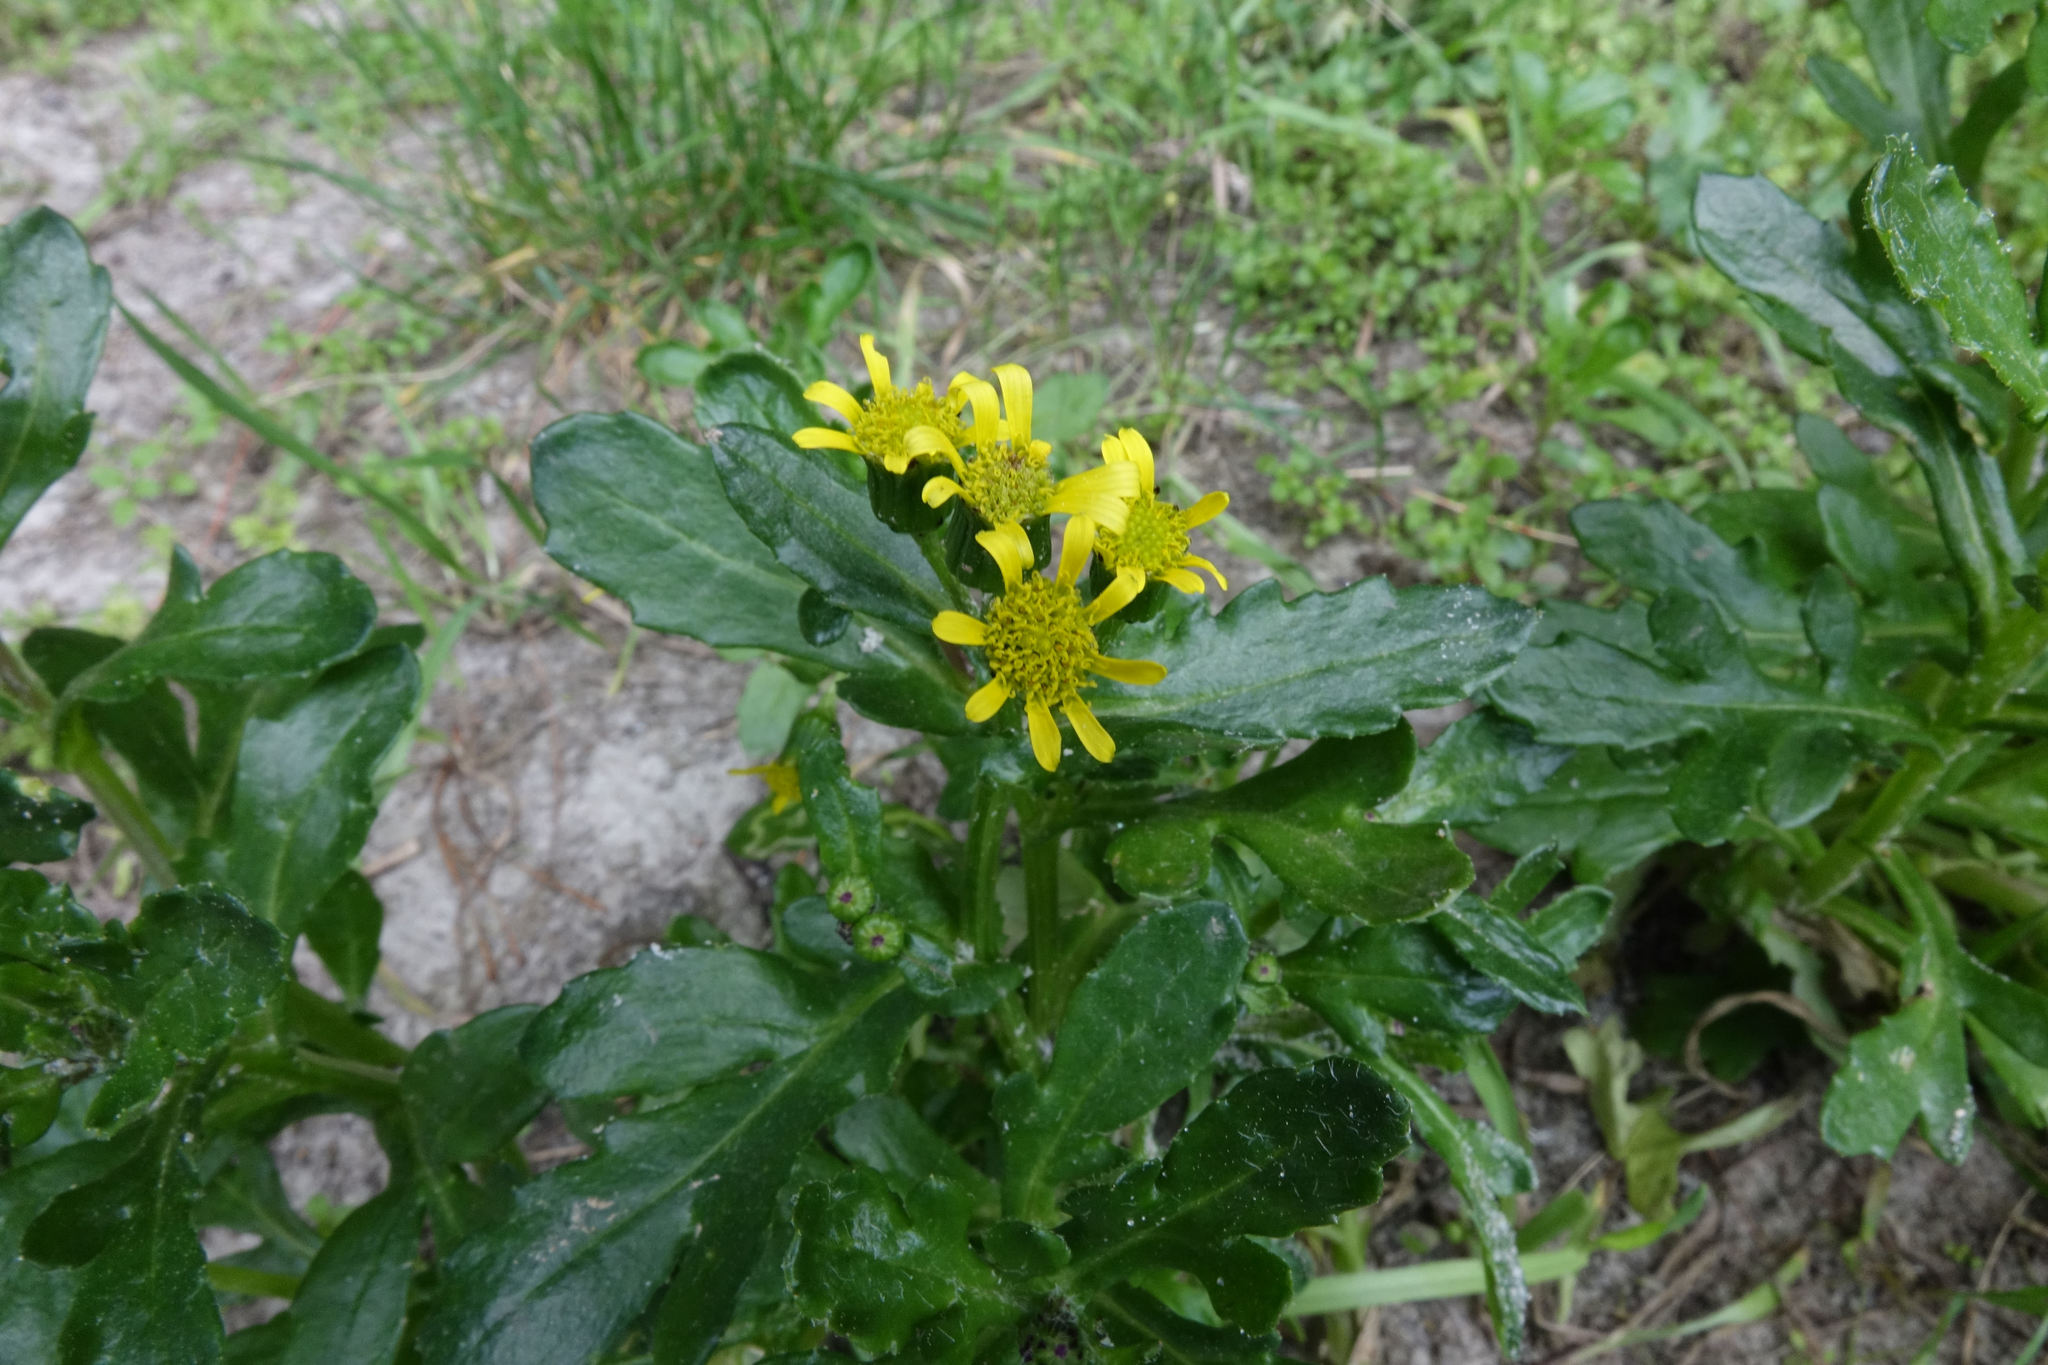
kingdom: Plantae
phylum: Tracheophyta
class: Magnoliopsida
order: Asterales
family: Asteraceae
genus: Senecio
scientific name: Senecio carnosulus
